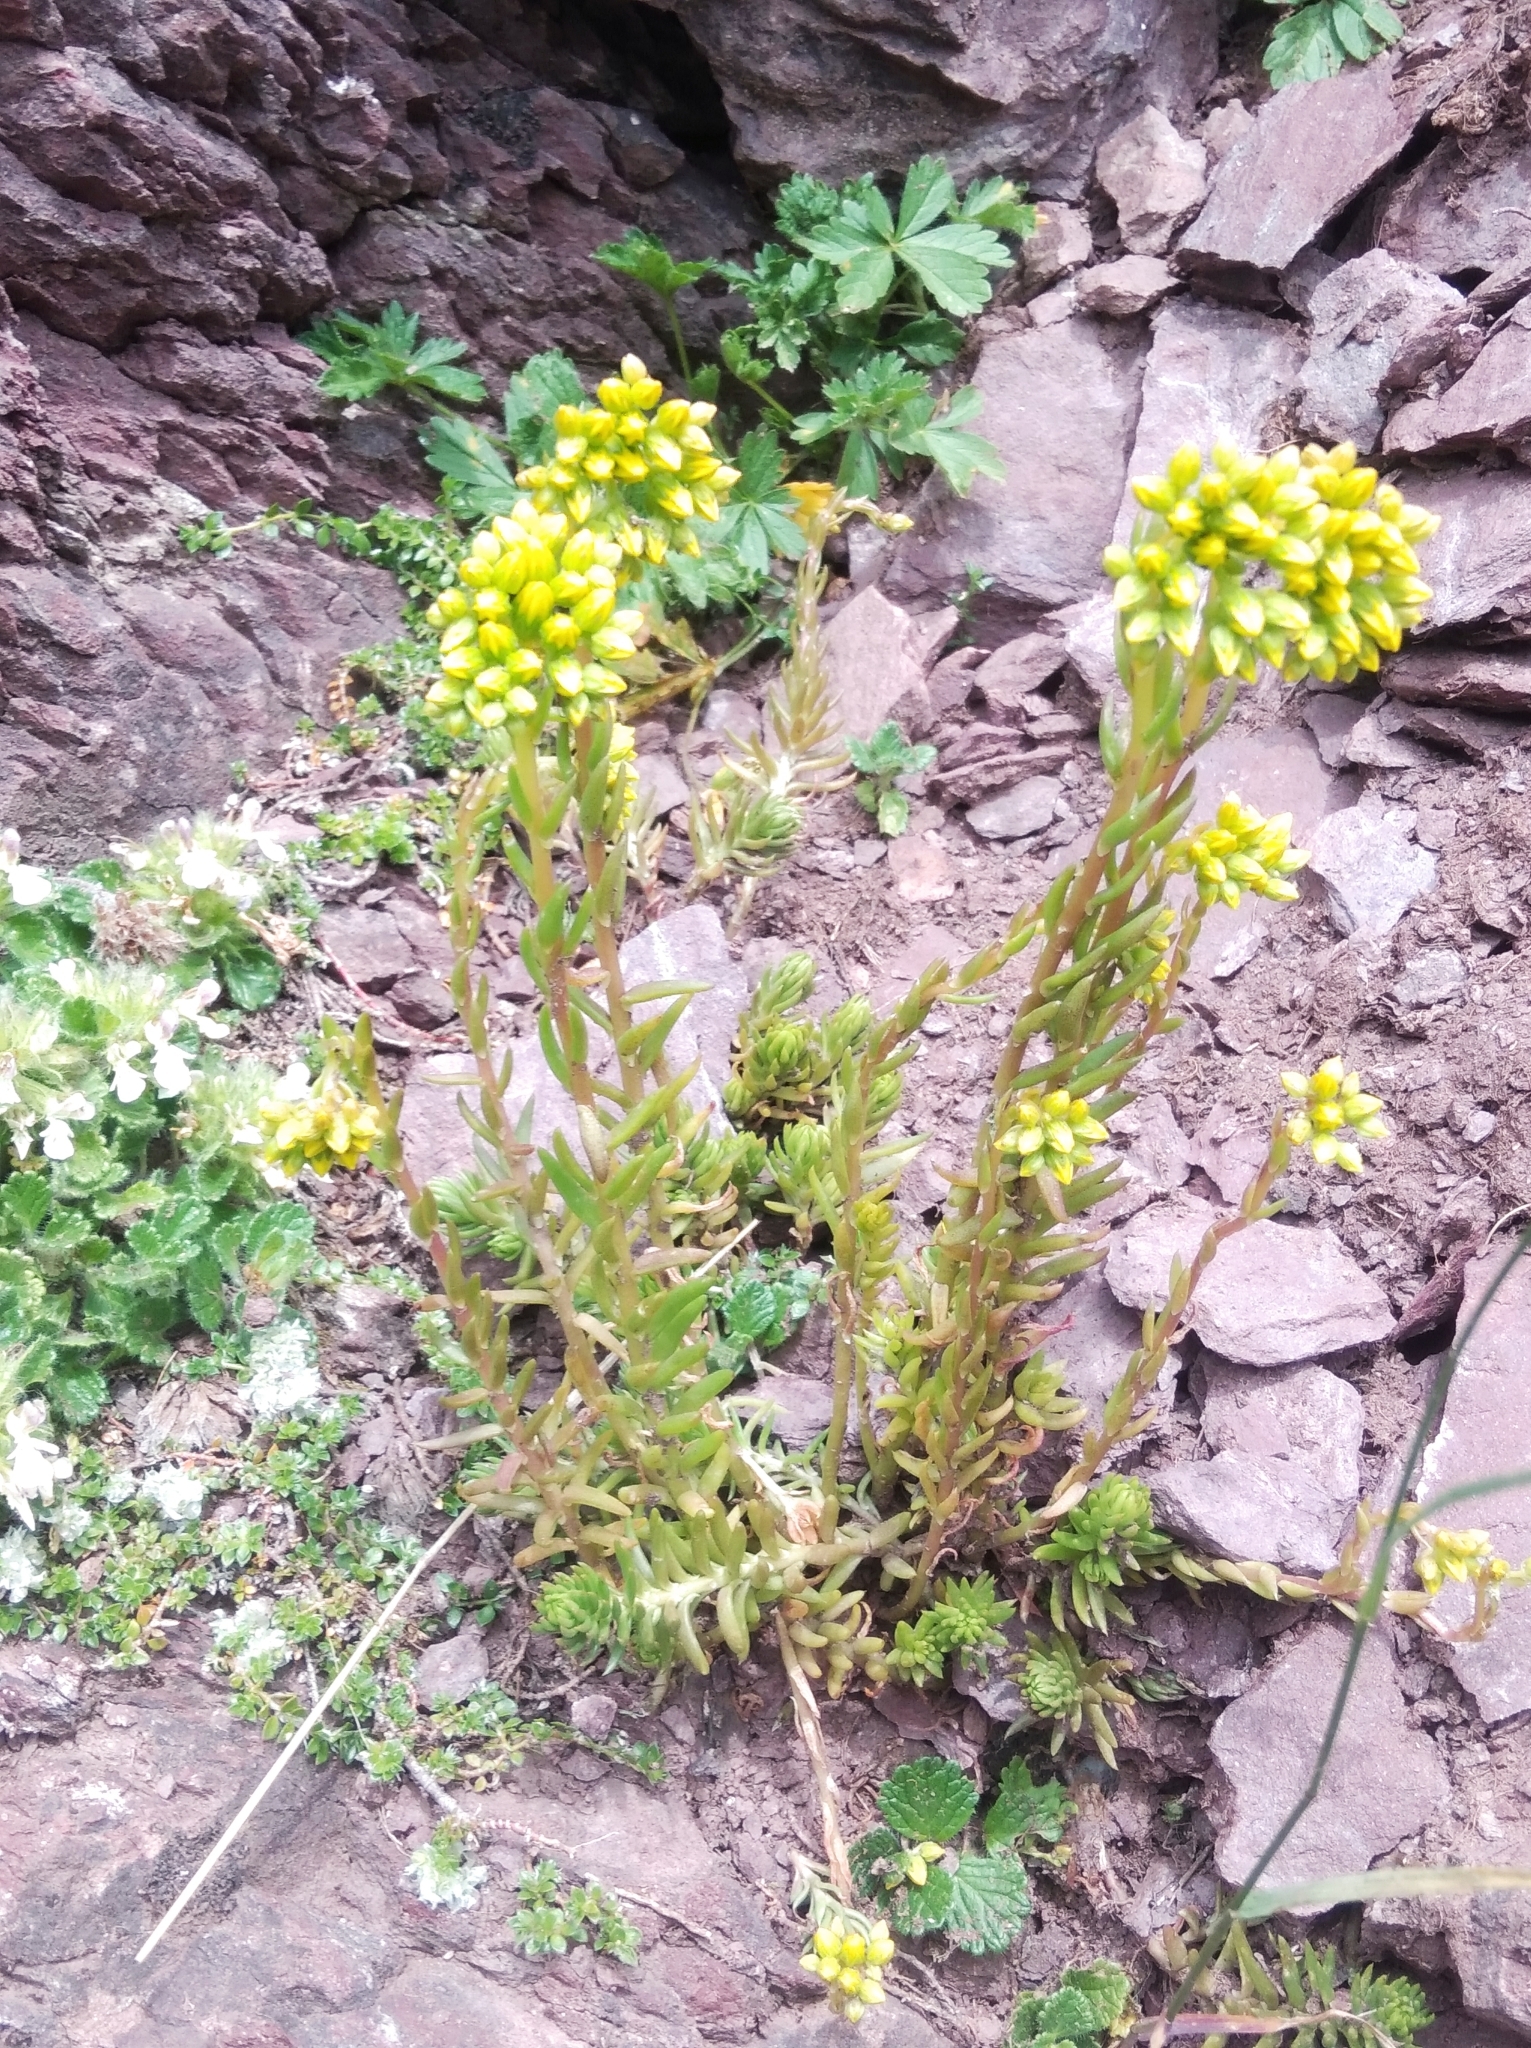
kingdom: Plantae
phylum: Tracheophyta
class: Magnoliopsida
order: Saxifragales
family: Crassulaceae
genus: Petrosedum
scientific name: Petrosedum rupestre
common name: Jenny's stonecrop
